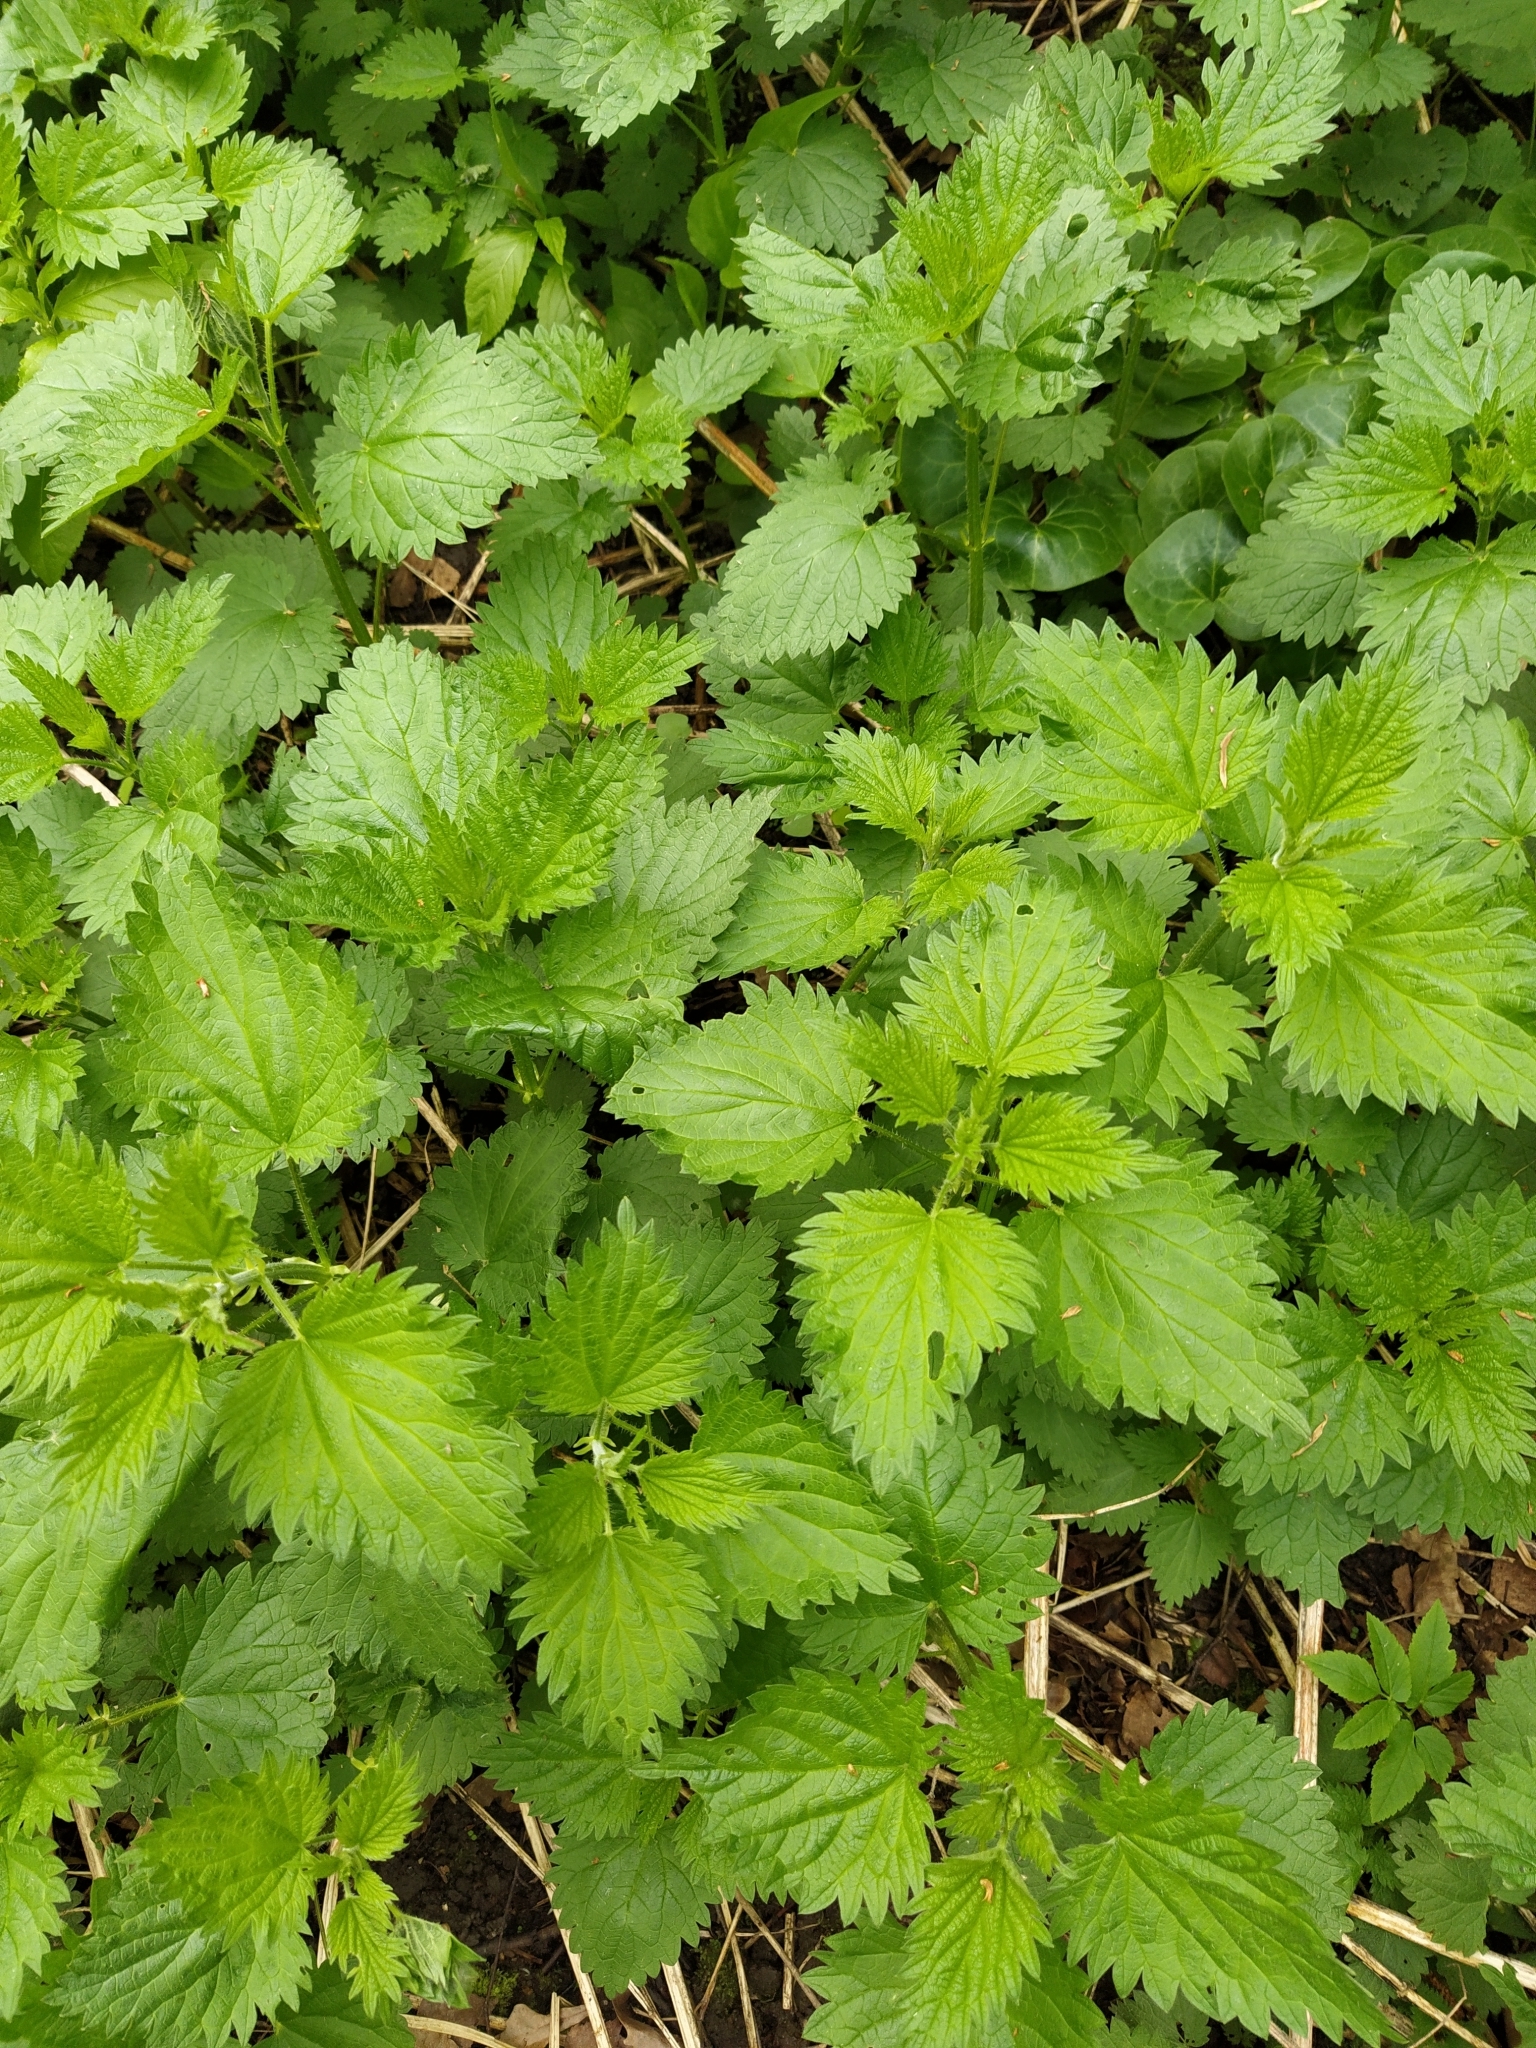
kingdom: Plantae
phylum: Tracheophyta
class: Magnoliopsida
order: Rosales
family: Urticaceae
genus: Urtica
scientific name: Urtica dioica
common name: Common nettle
